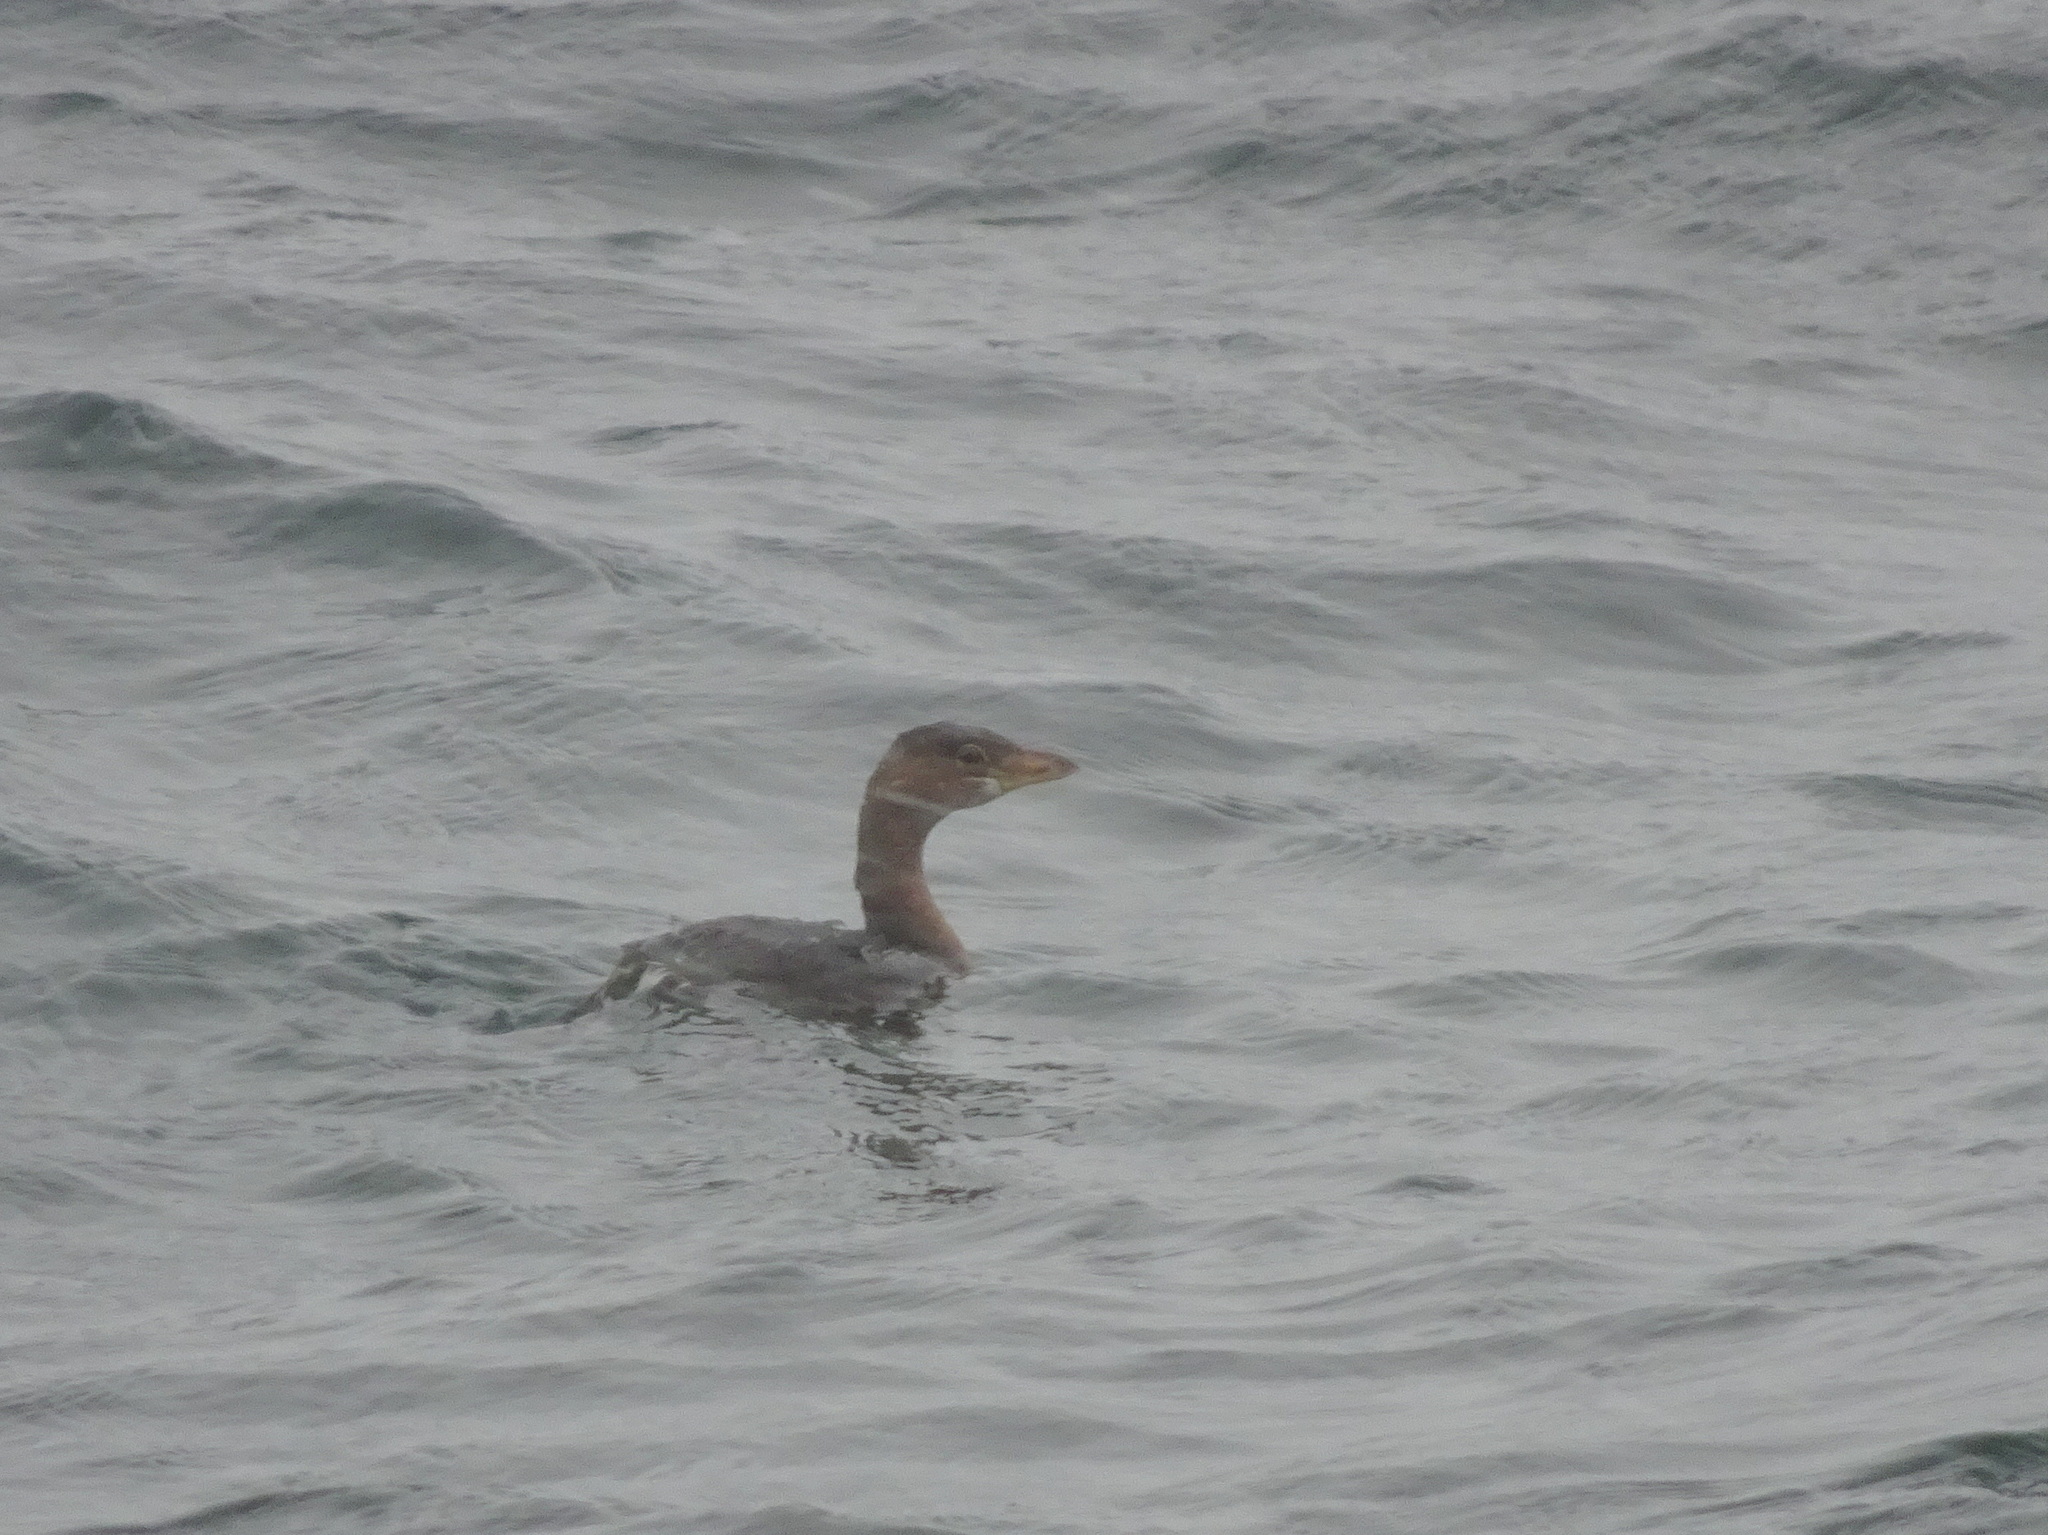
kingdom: Animalia
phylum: Chordata
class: Aves
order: Podicipediformes
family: Podicipedidae
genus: Podilymbus
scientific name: Podilymbus podiceps
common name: Pied-billed grebe
